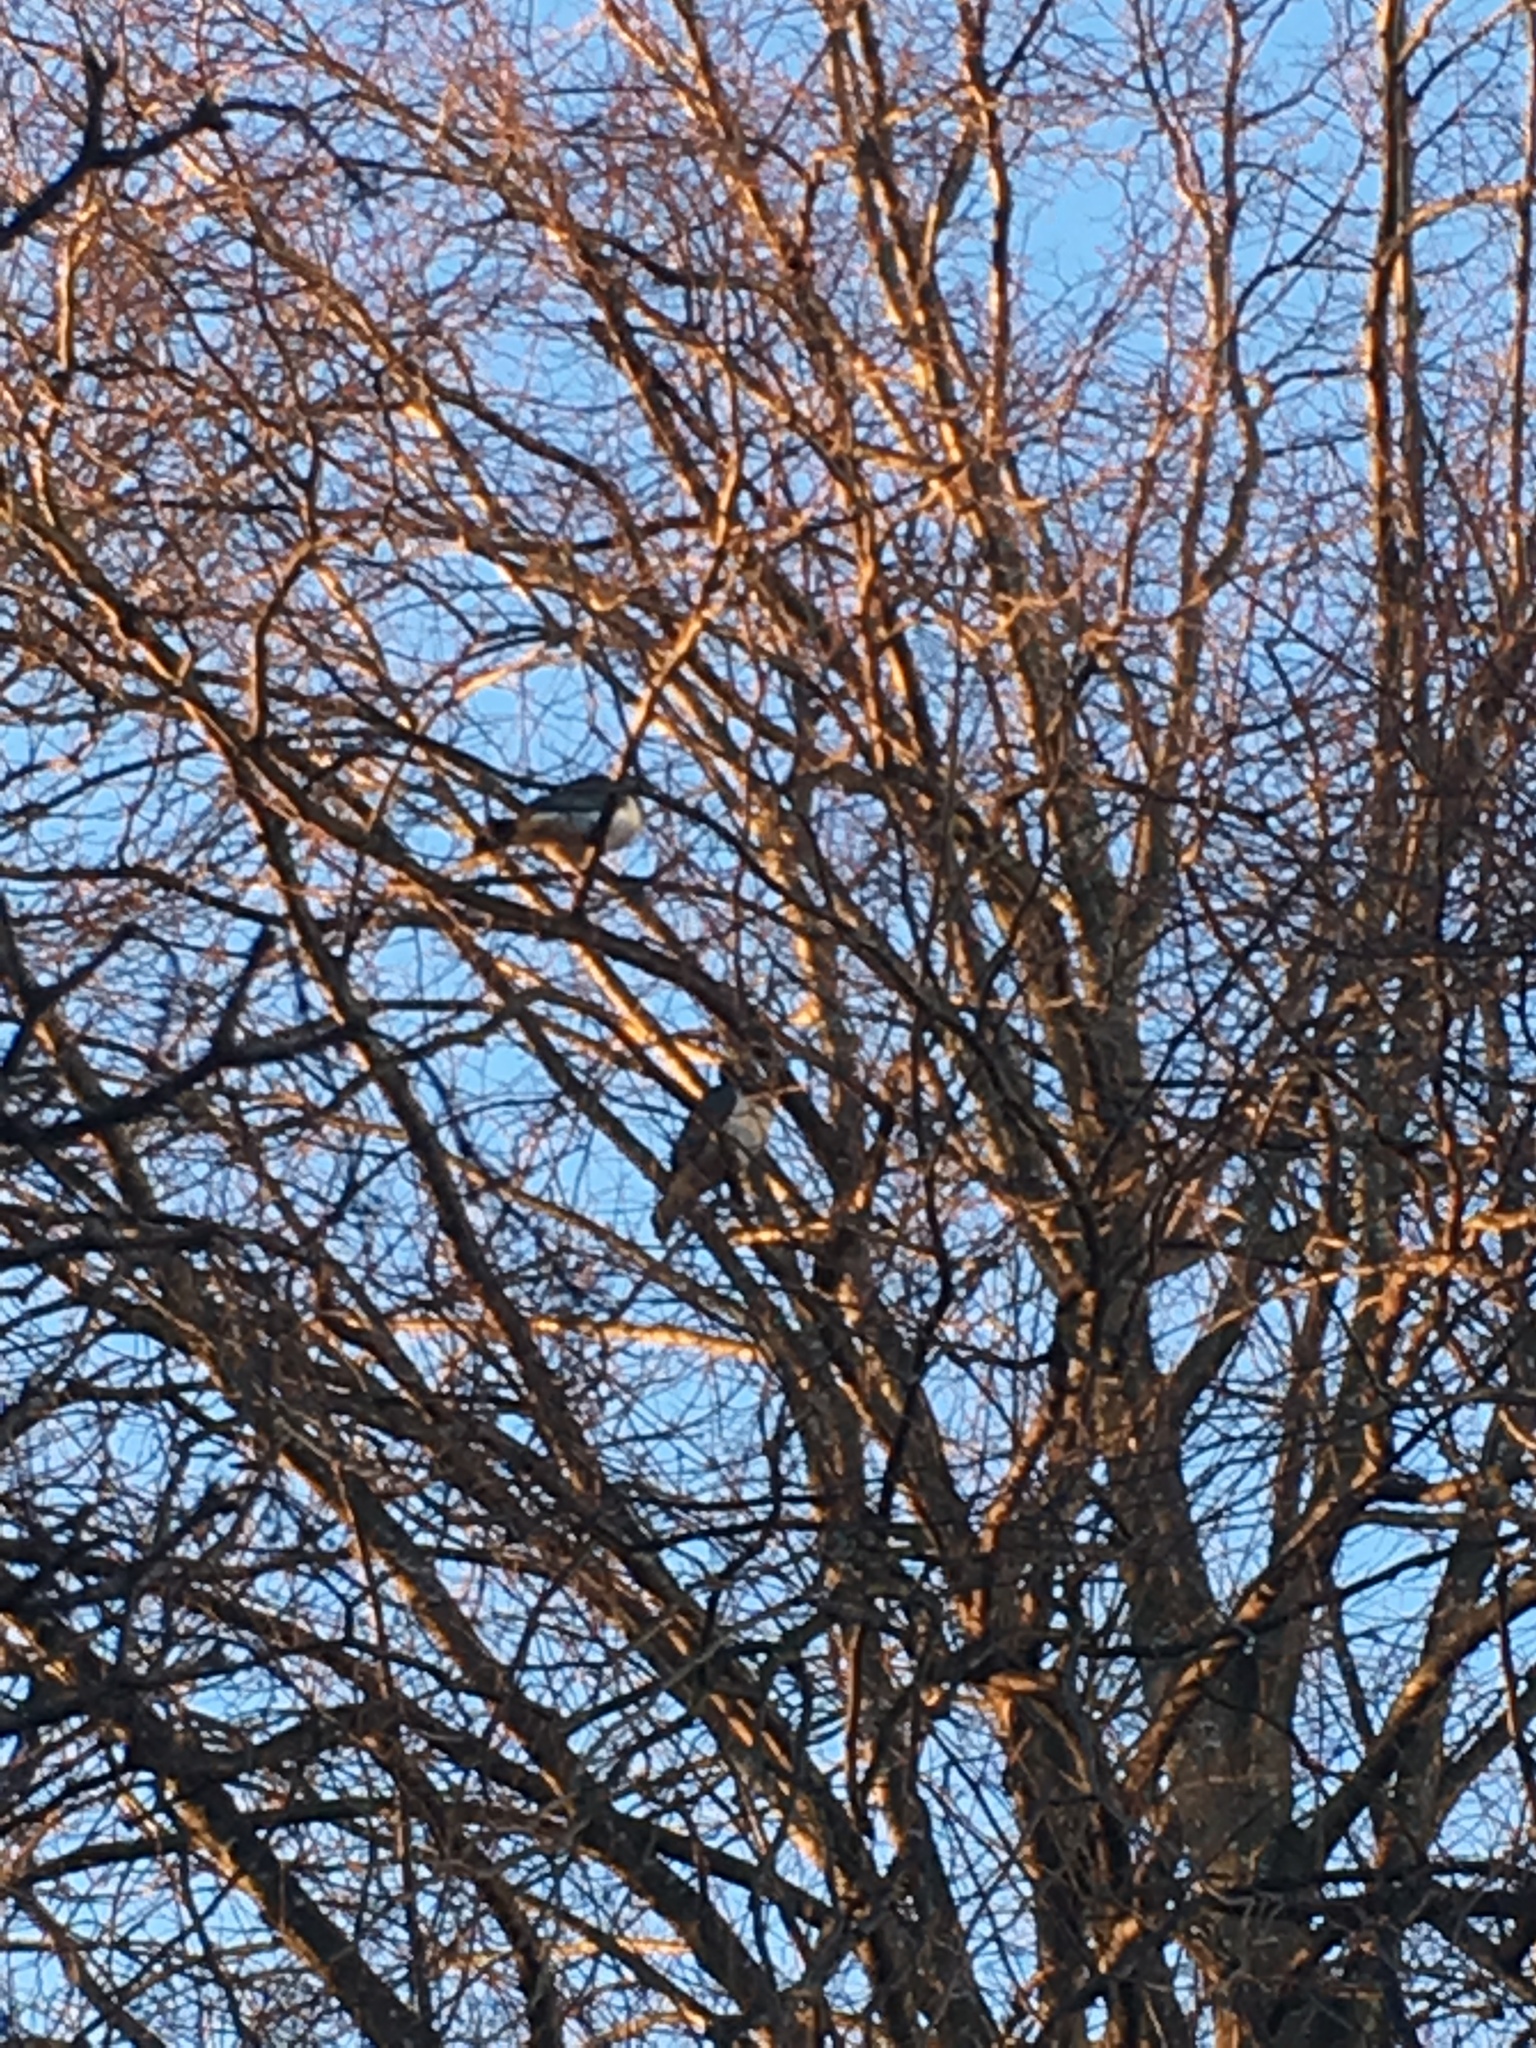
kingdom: Animalia
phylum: Chordata
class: Aves
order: Columbiformes
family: Columbidae
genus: Hemiphaga
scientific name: Hemiphaga novaeseelandiae
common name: New zealand pigeon
